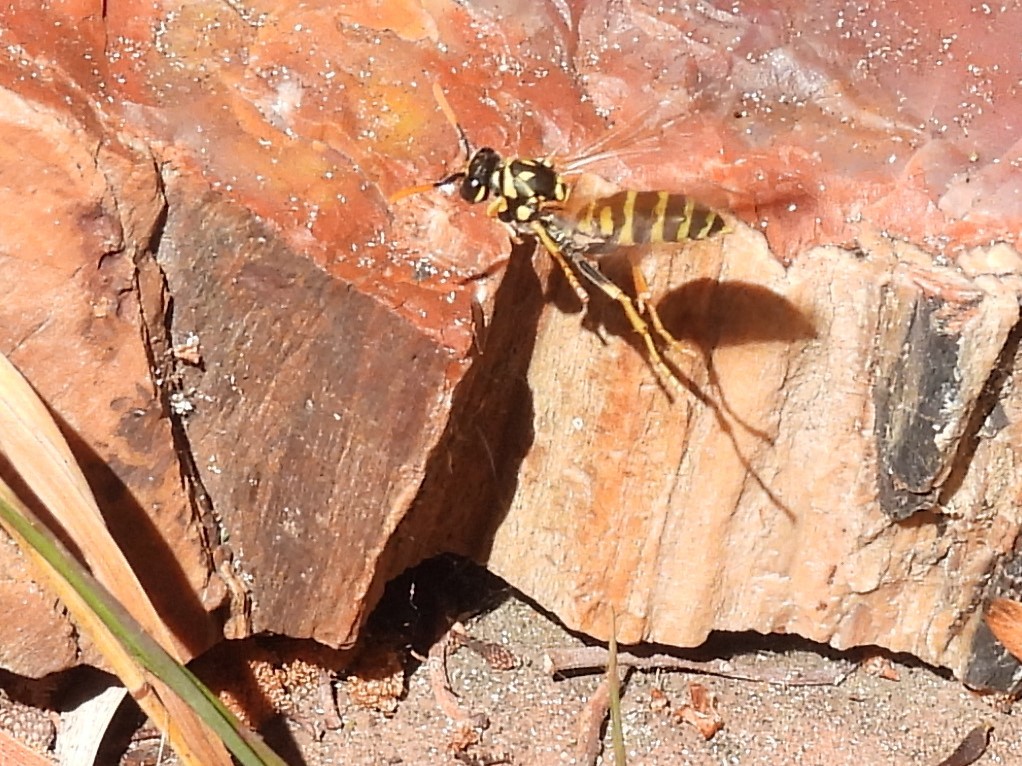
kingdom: Animalia
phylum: Arthropoda
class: Insecta
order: Hymenoptera
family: Eumenidae
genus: Polistes
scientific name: Polistes dominula
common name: Paper wasp
